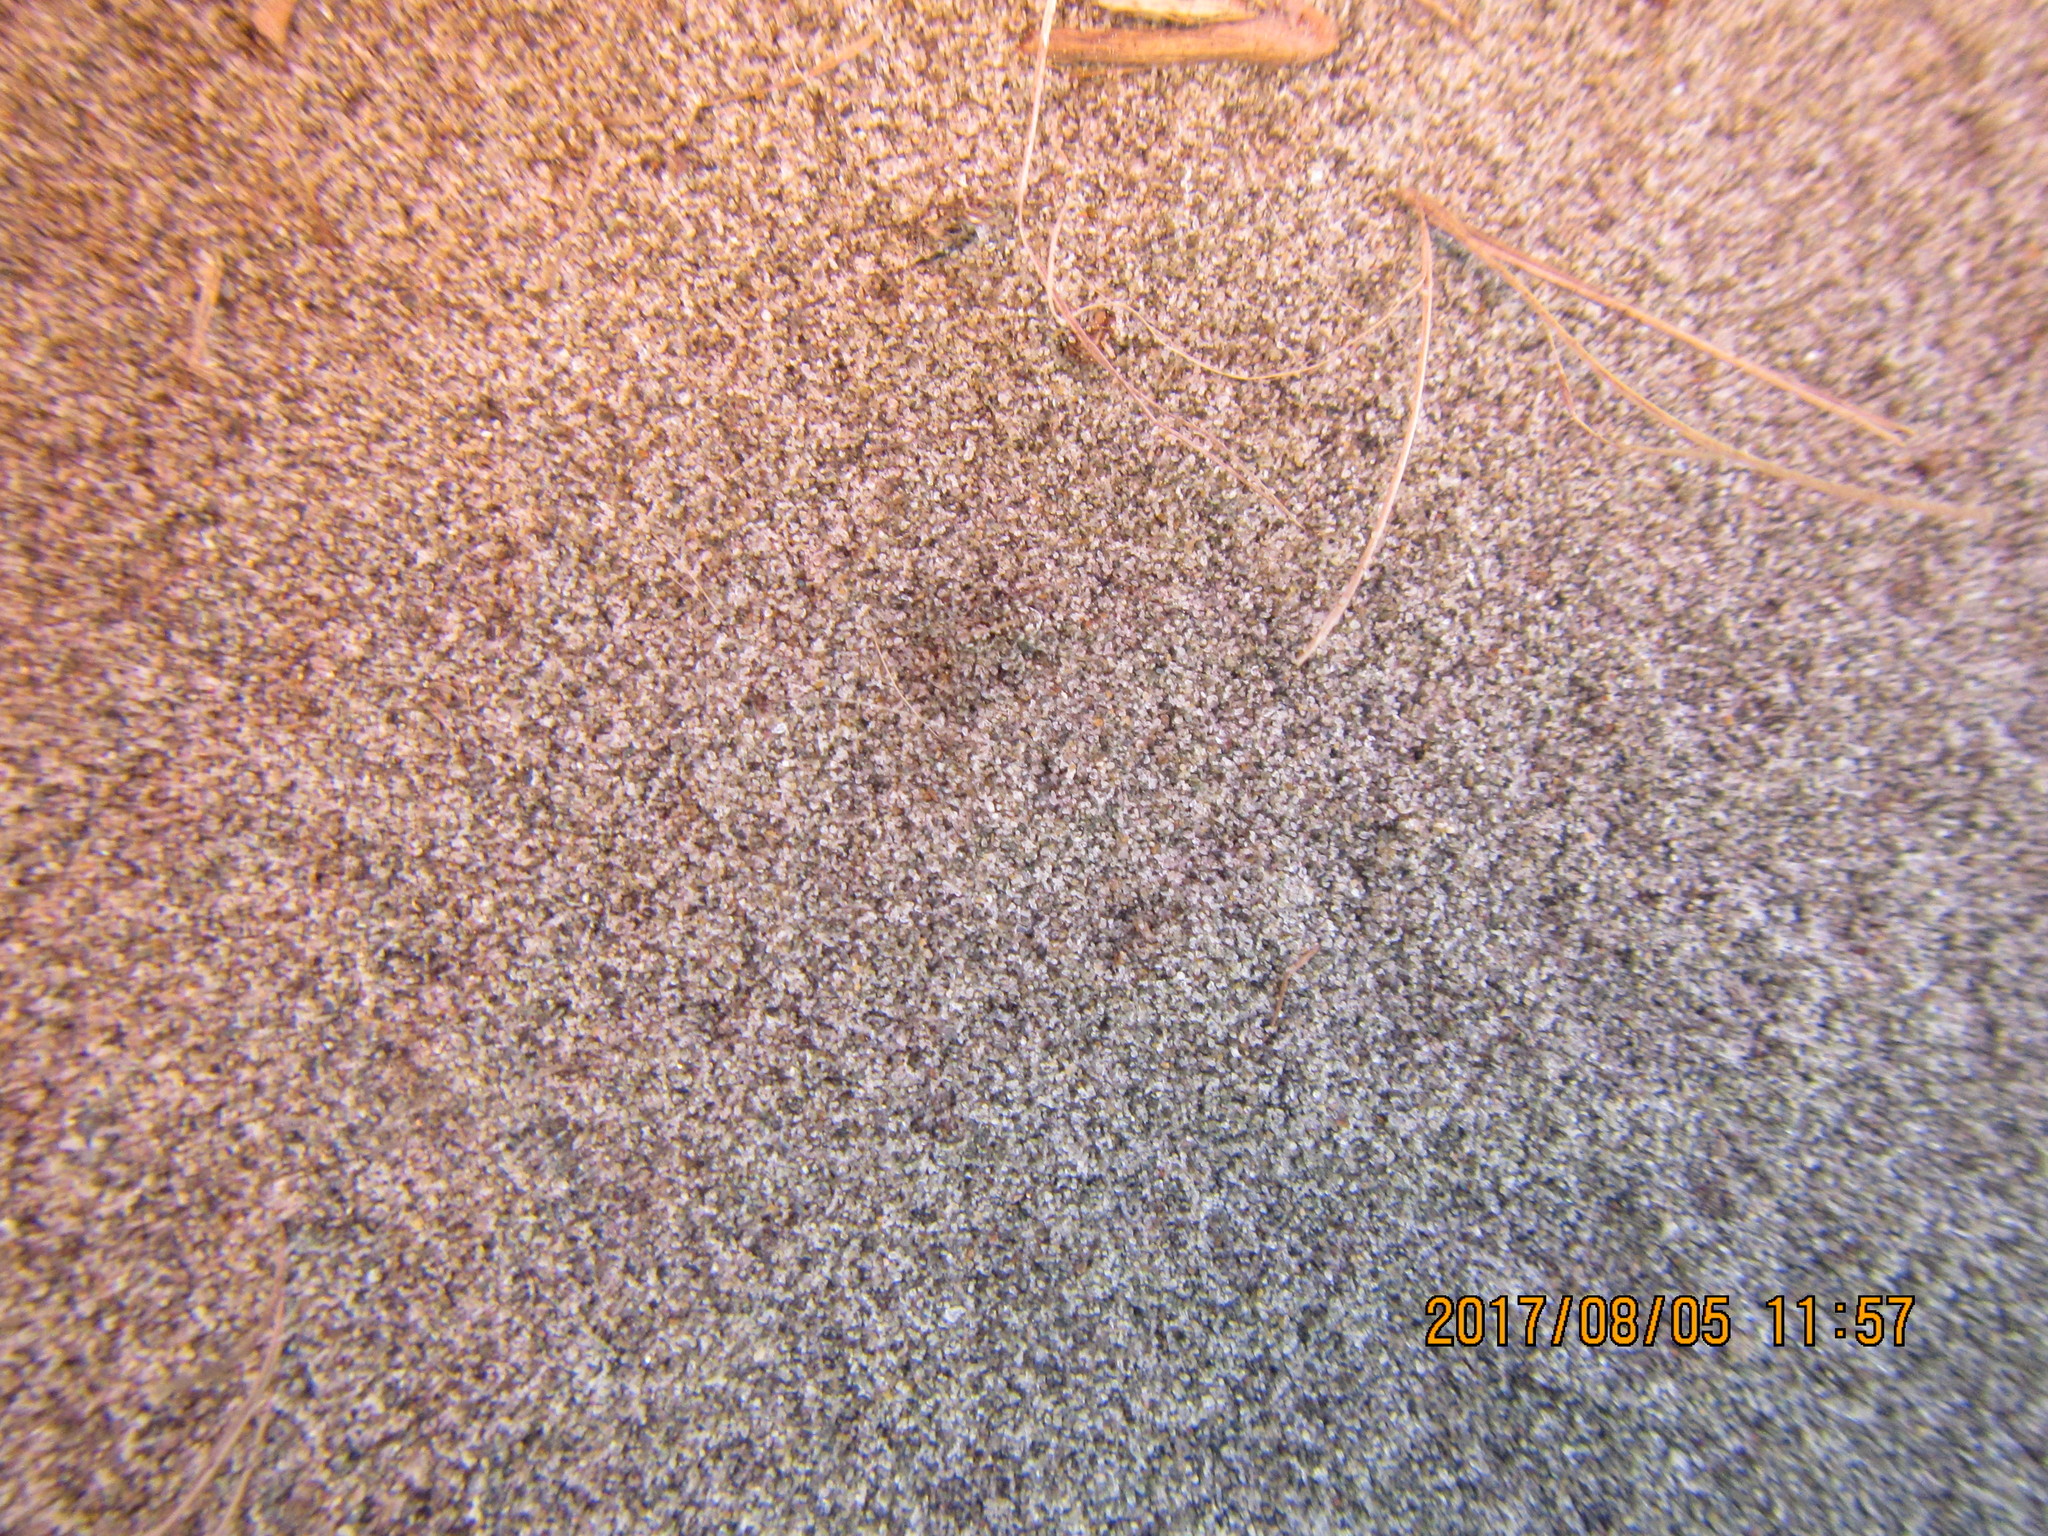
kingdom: Animalia
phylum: Arthropoda
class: Arachnida
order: Araneae
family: Lycosidae
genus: Anoteropsis
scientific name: Anoteropsis litoralis
